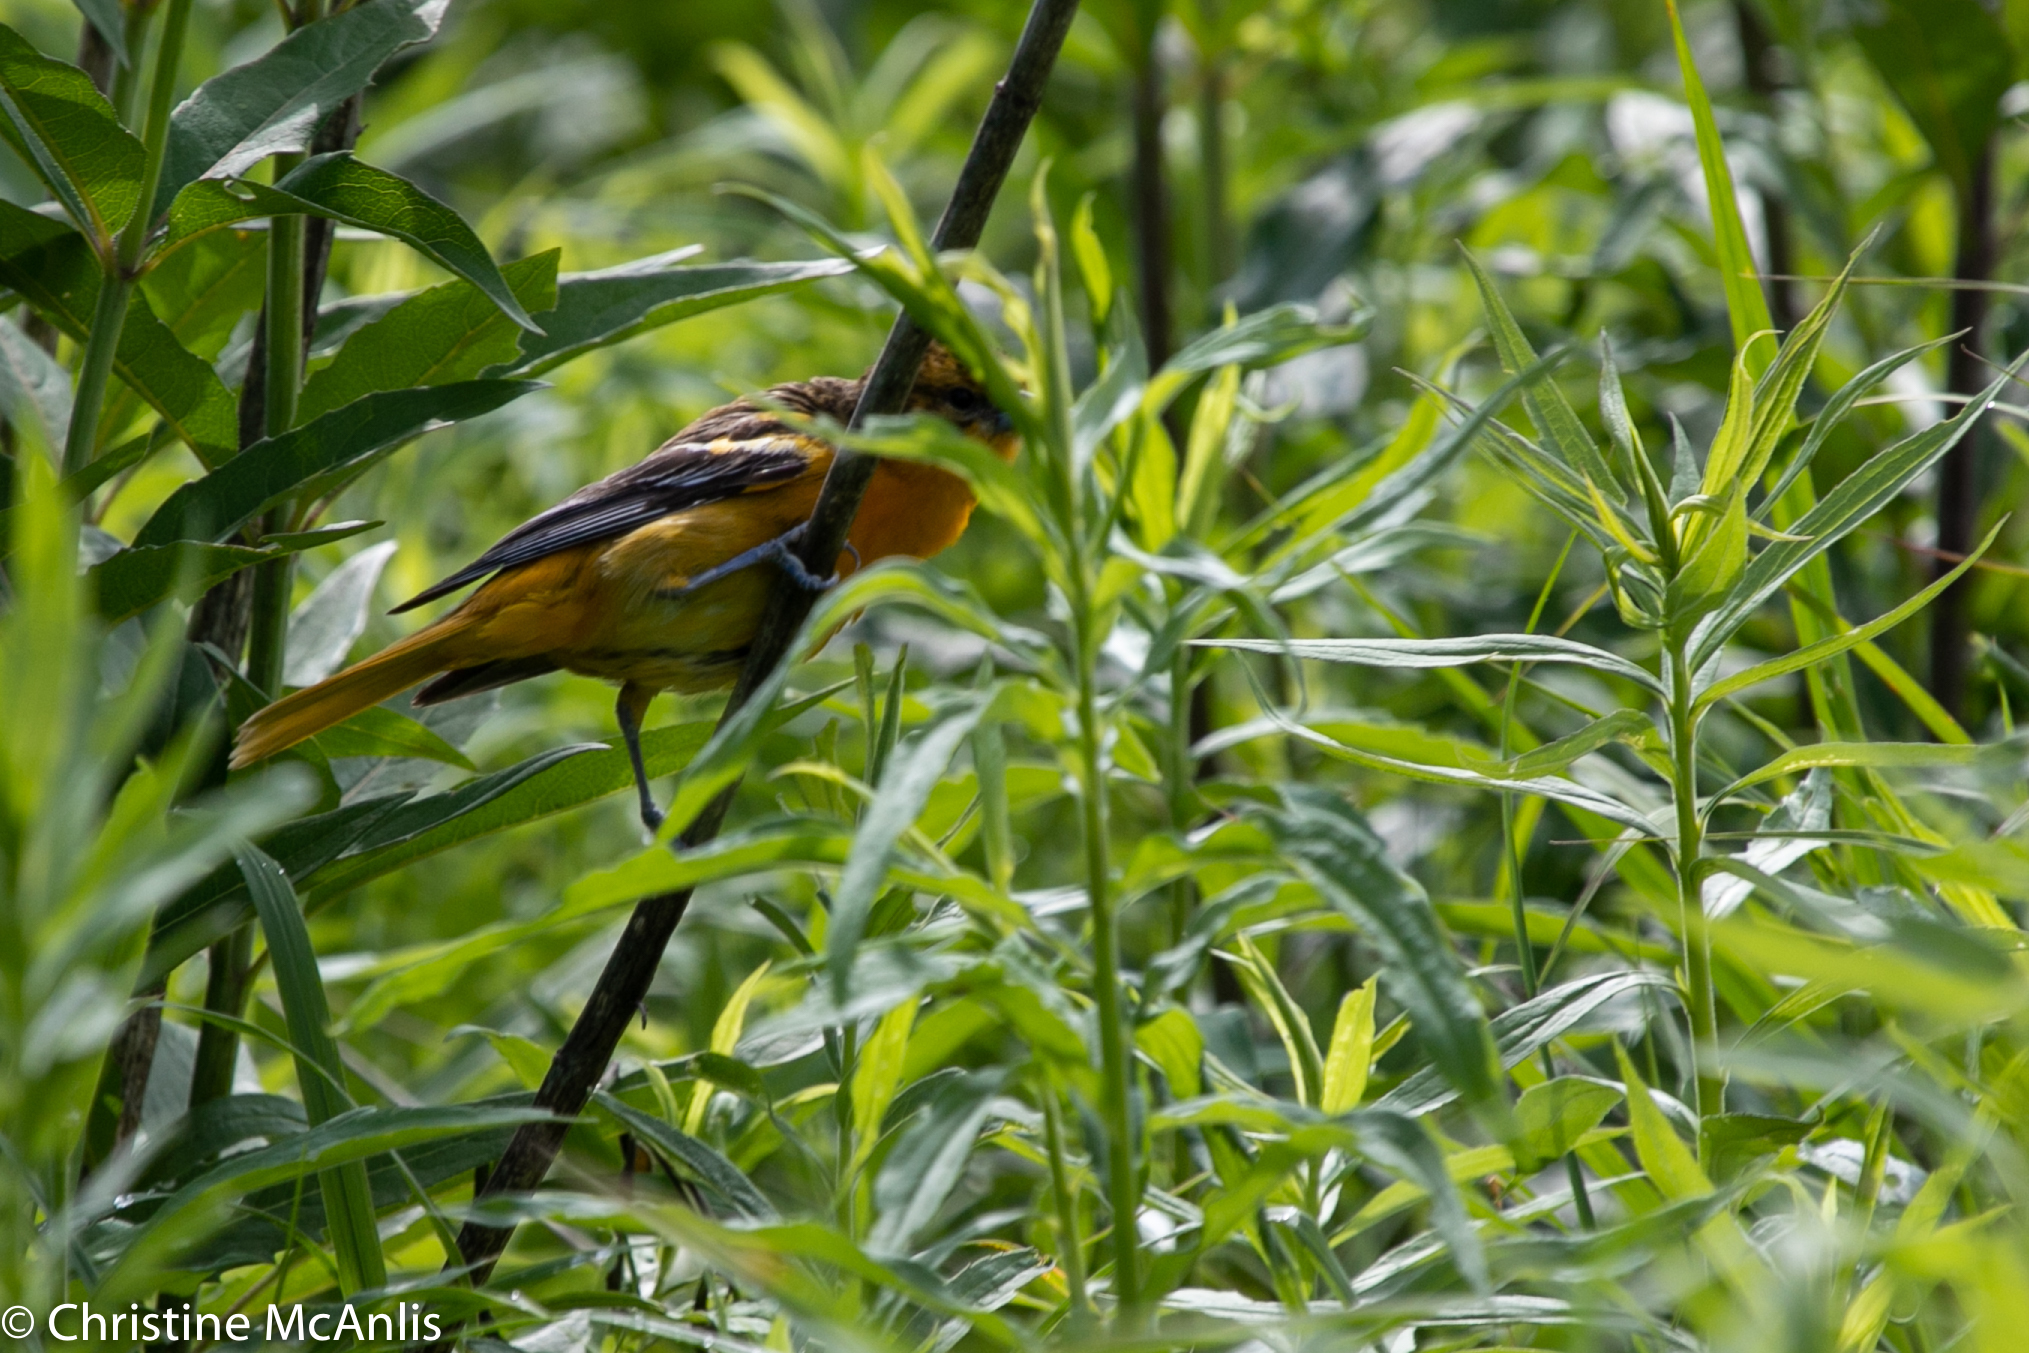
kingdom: Animalia
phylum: Chordata
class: Aves
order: Passeriformes
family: Icteridae
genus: Icterus
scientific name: Icterus galbula
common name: Baltimore oriole
